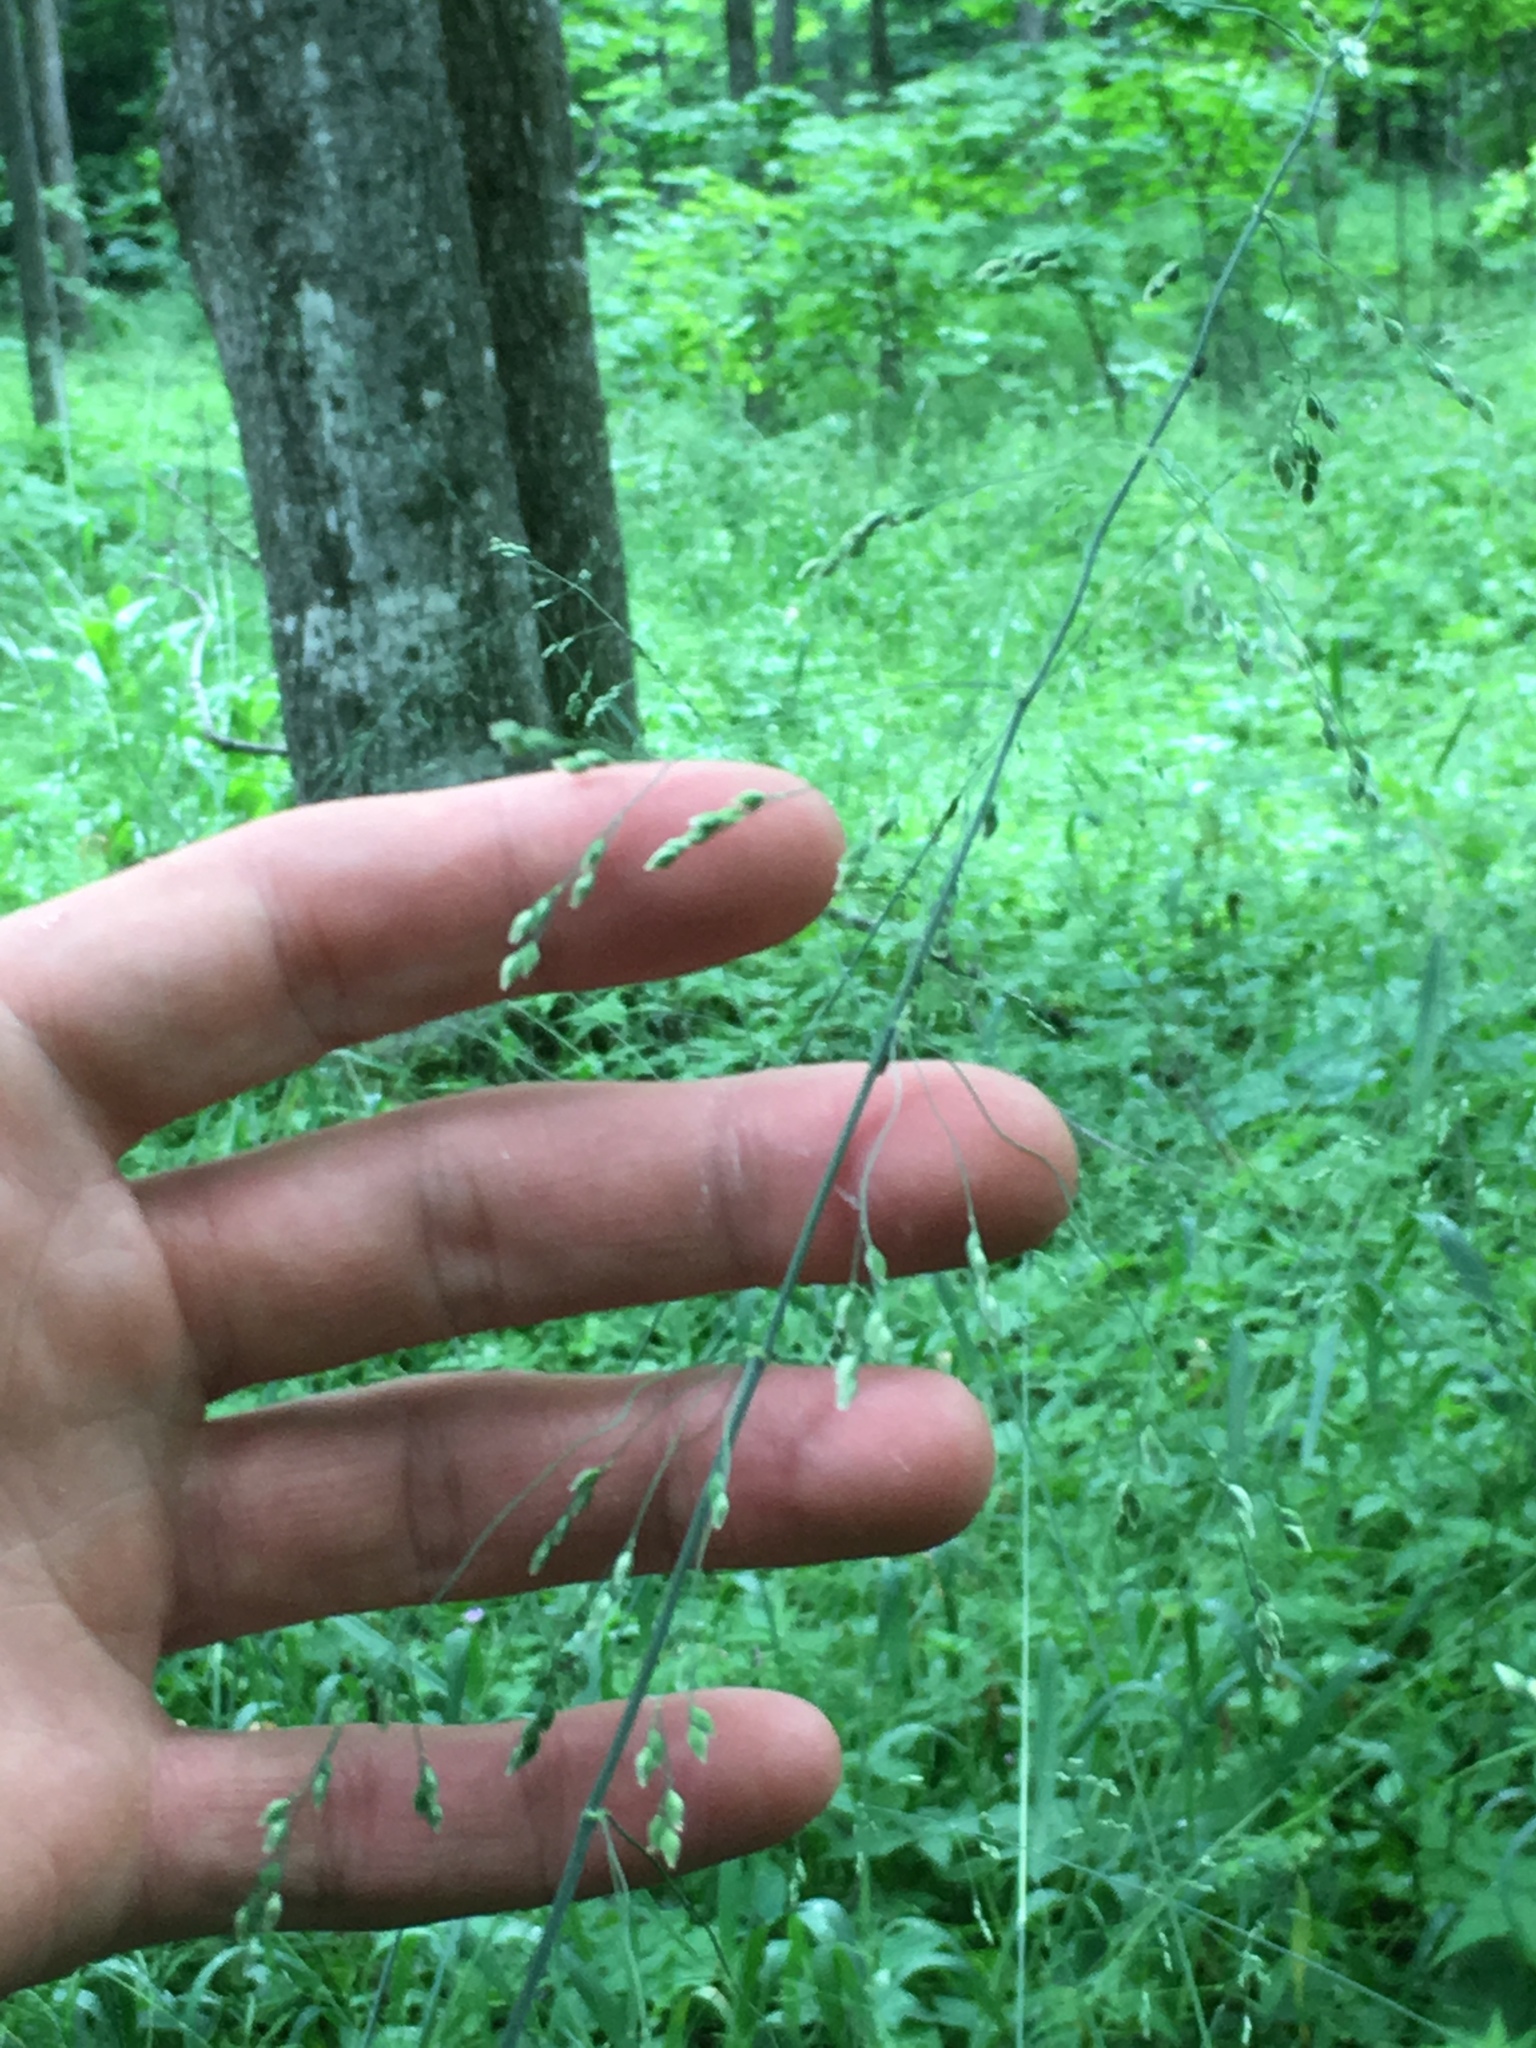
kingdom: Plantae
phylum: Tracheophyta
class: Liliopsida
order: Poales
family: Poaceae
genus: Milium
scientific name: Milium effusum
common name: Wood millet
